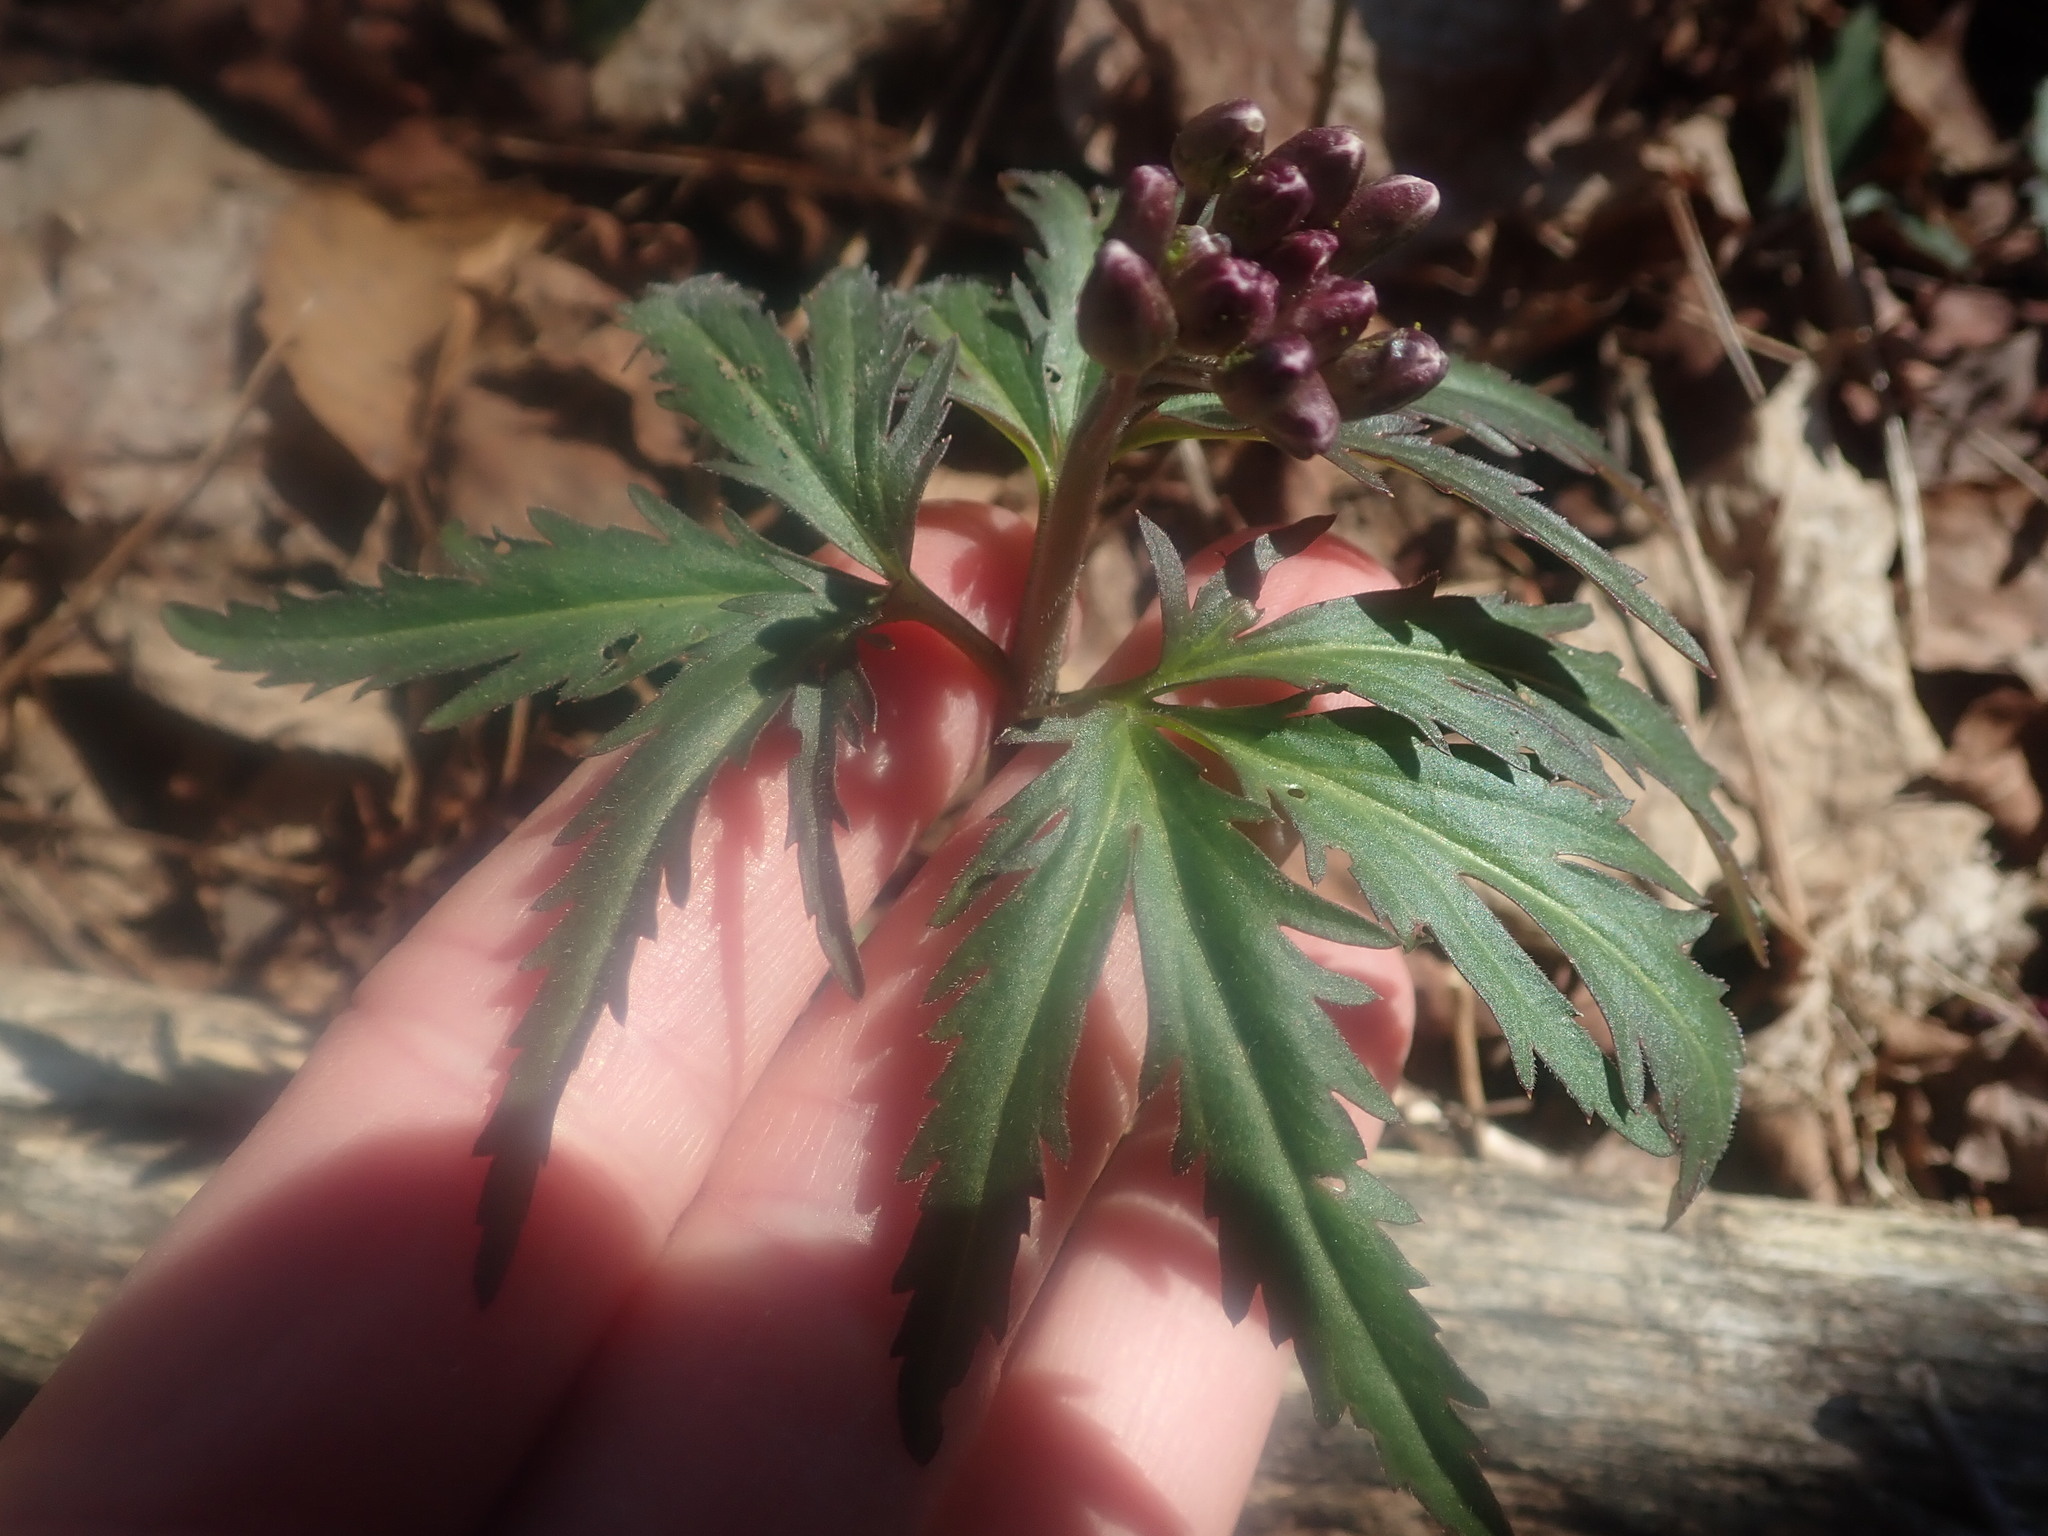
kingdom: Plantae
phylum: Tracheophyta
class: Magnoliopsida
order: Brassicales
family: Brassicaceae
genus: Cardamine
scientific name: Cardamine concatenata
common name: Cut-leaf toothcup
